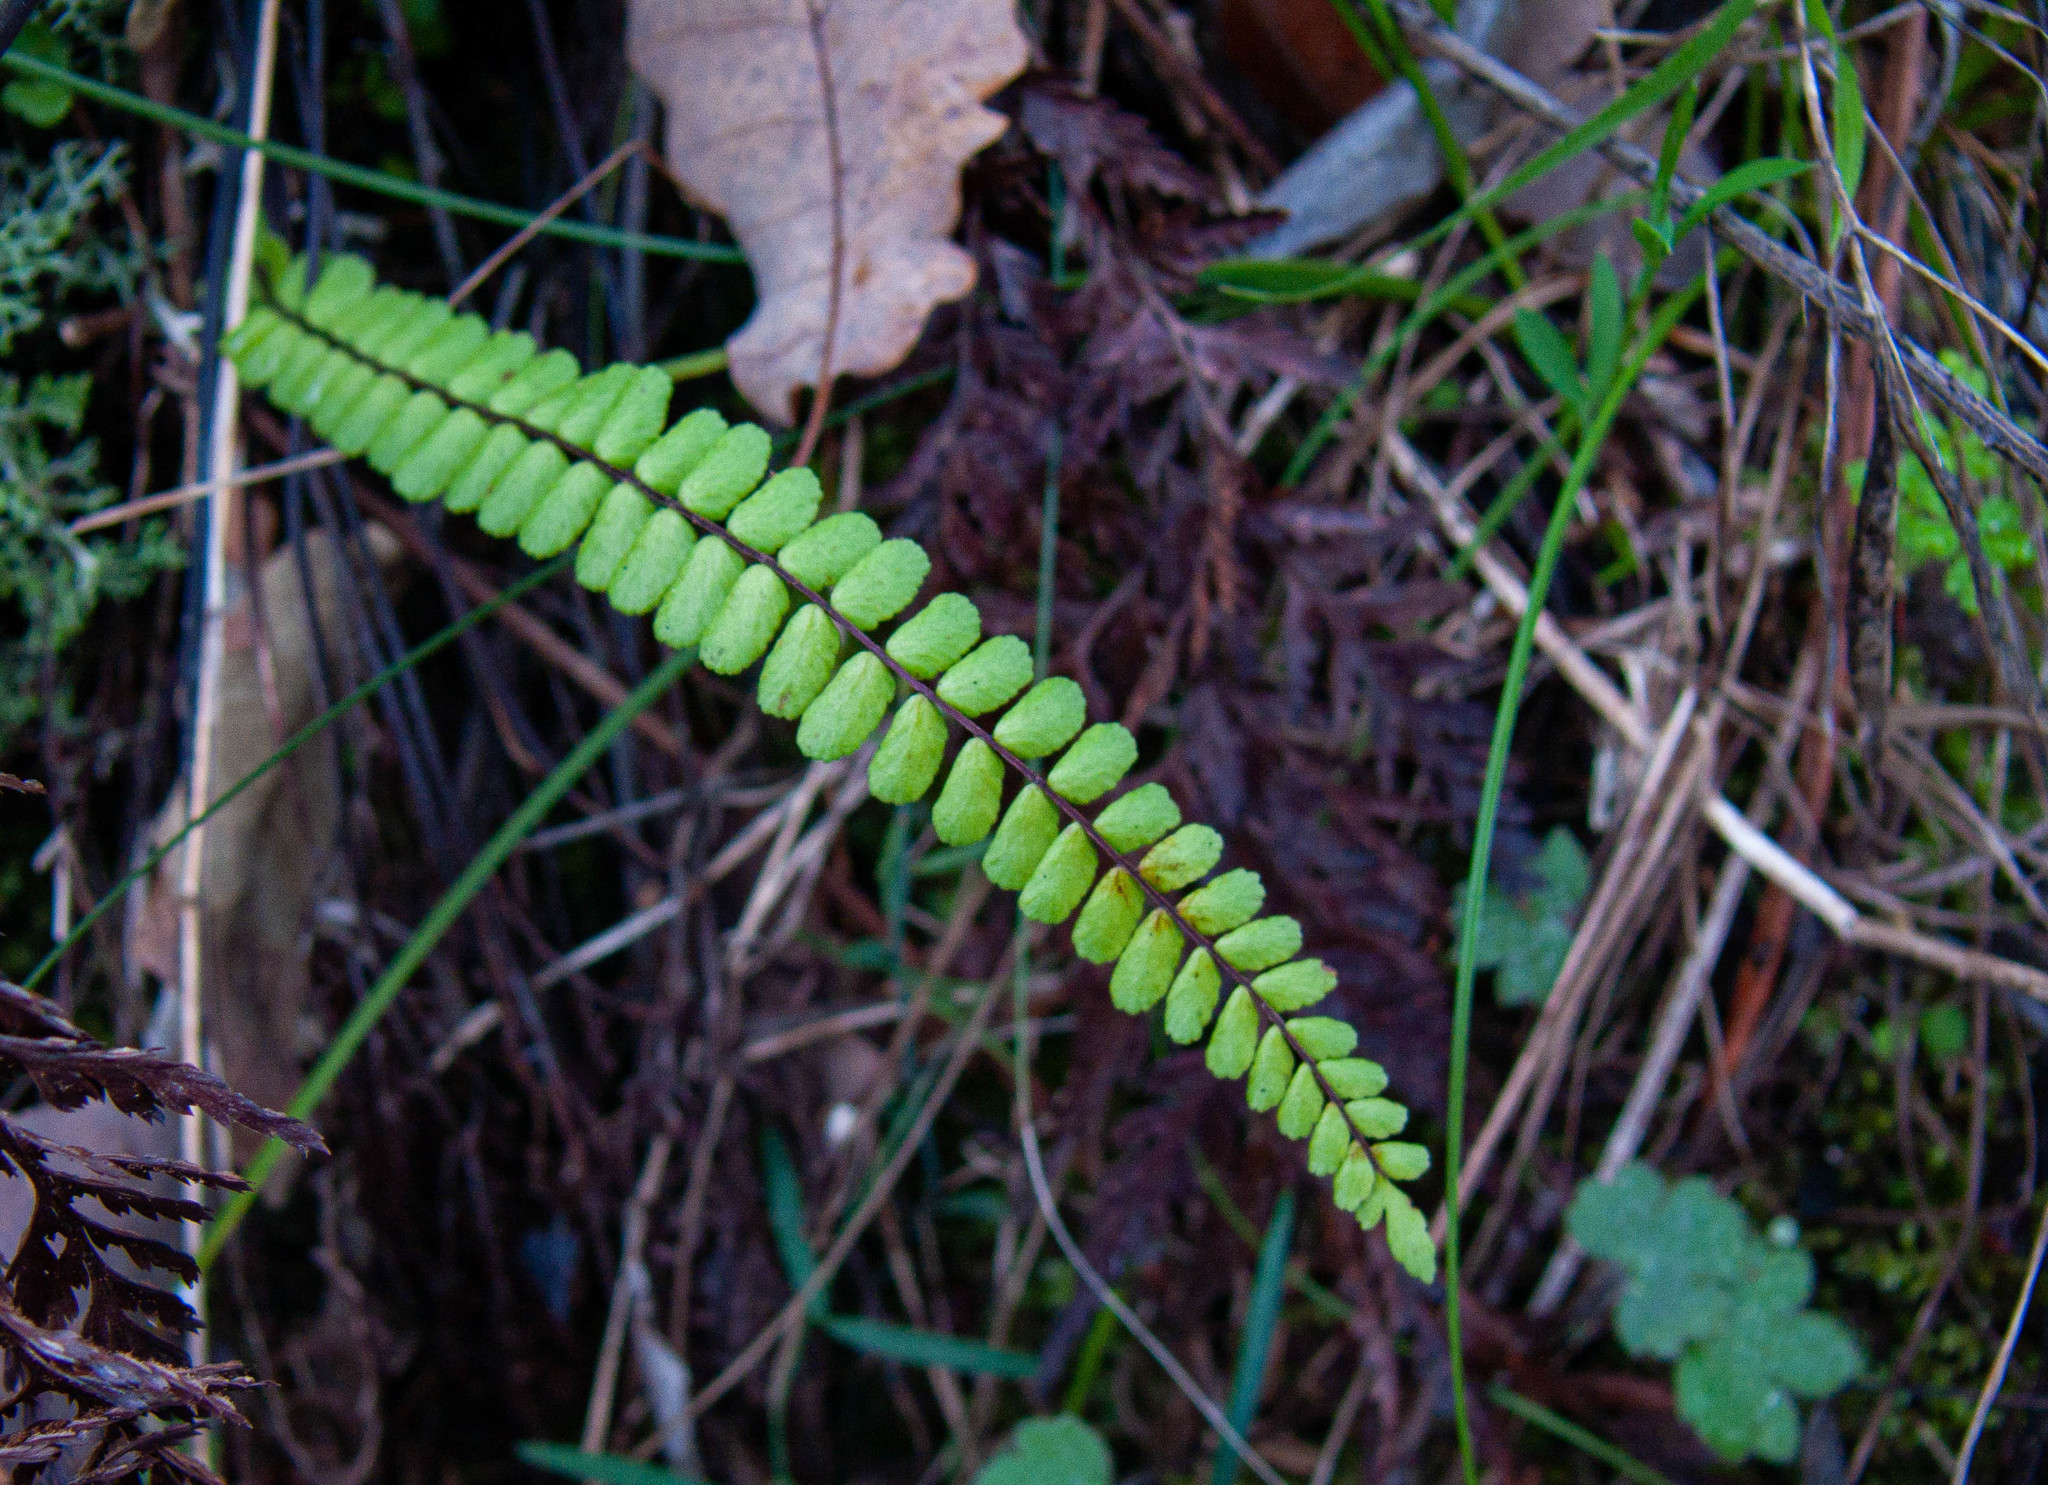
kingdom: Plantae
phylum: Tracheophyta
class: Polypodiopsida
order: Polypodiales
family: Aspleniaceae
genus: Asplenium
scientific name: Asplenium trichomanes
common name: Maidenhair spleenwort
